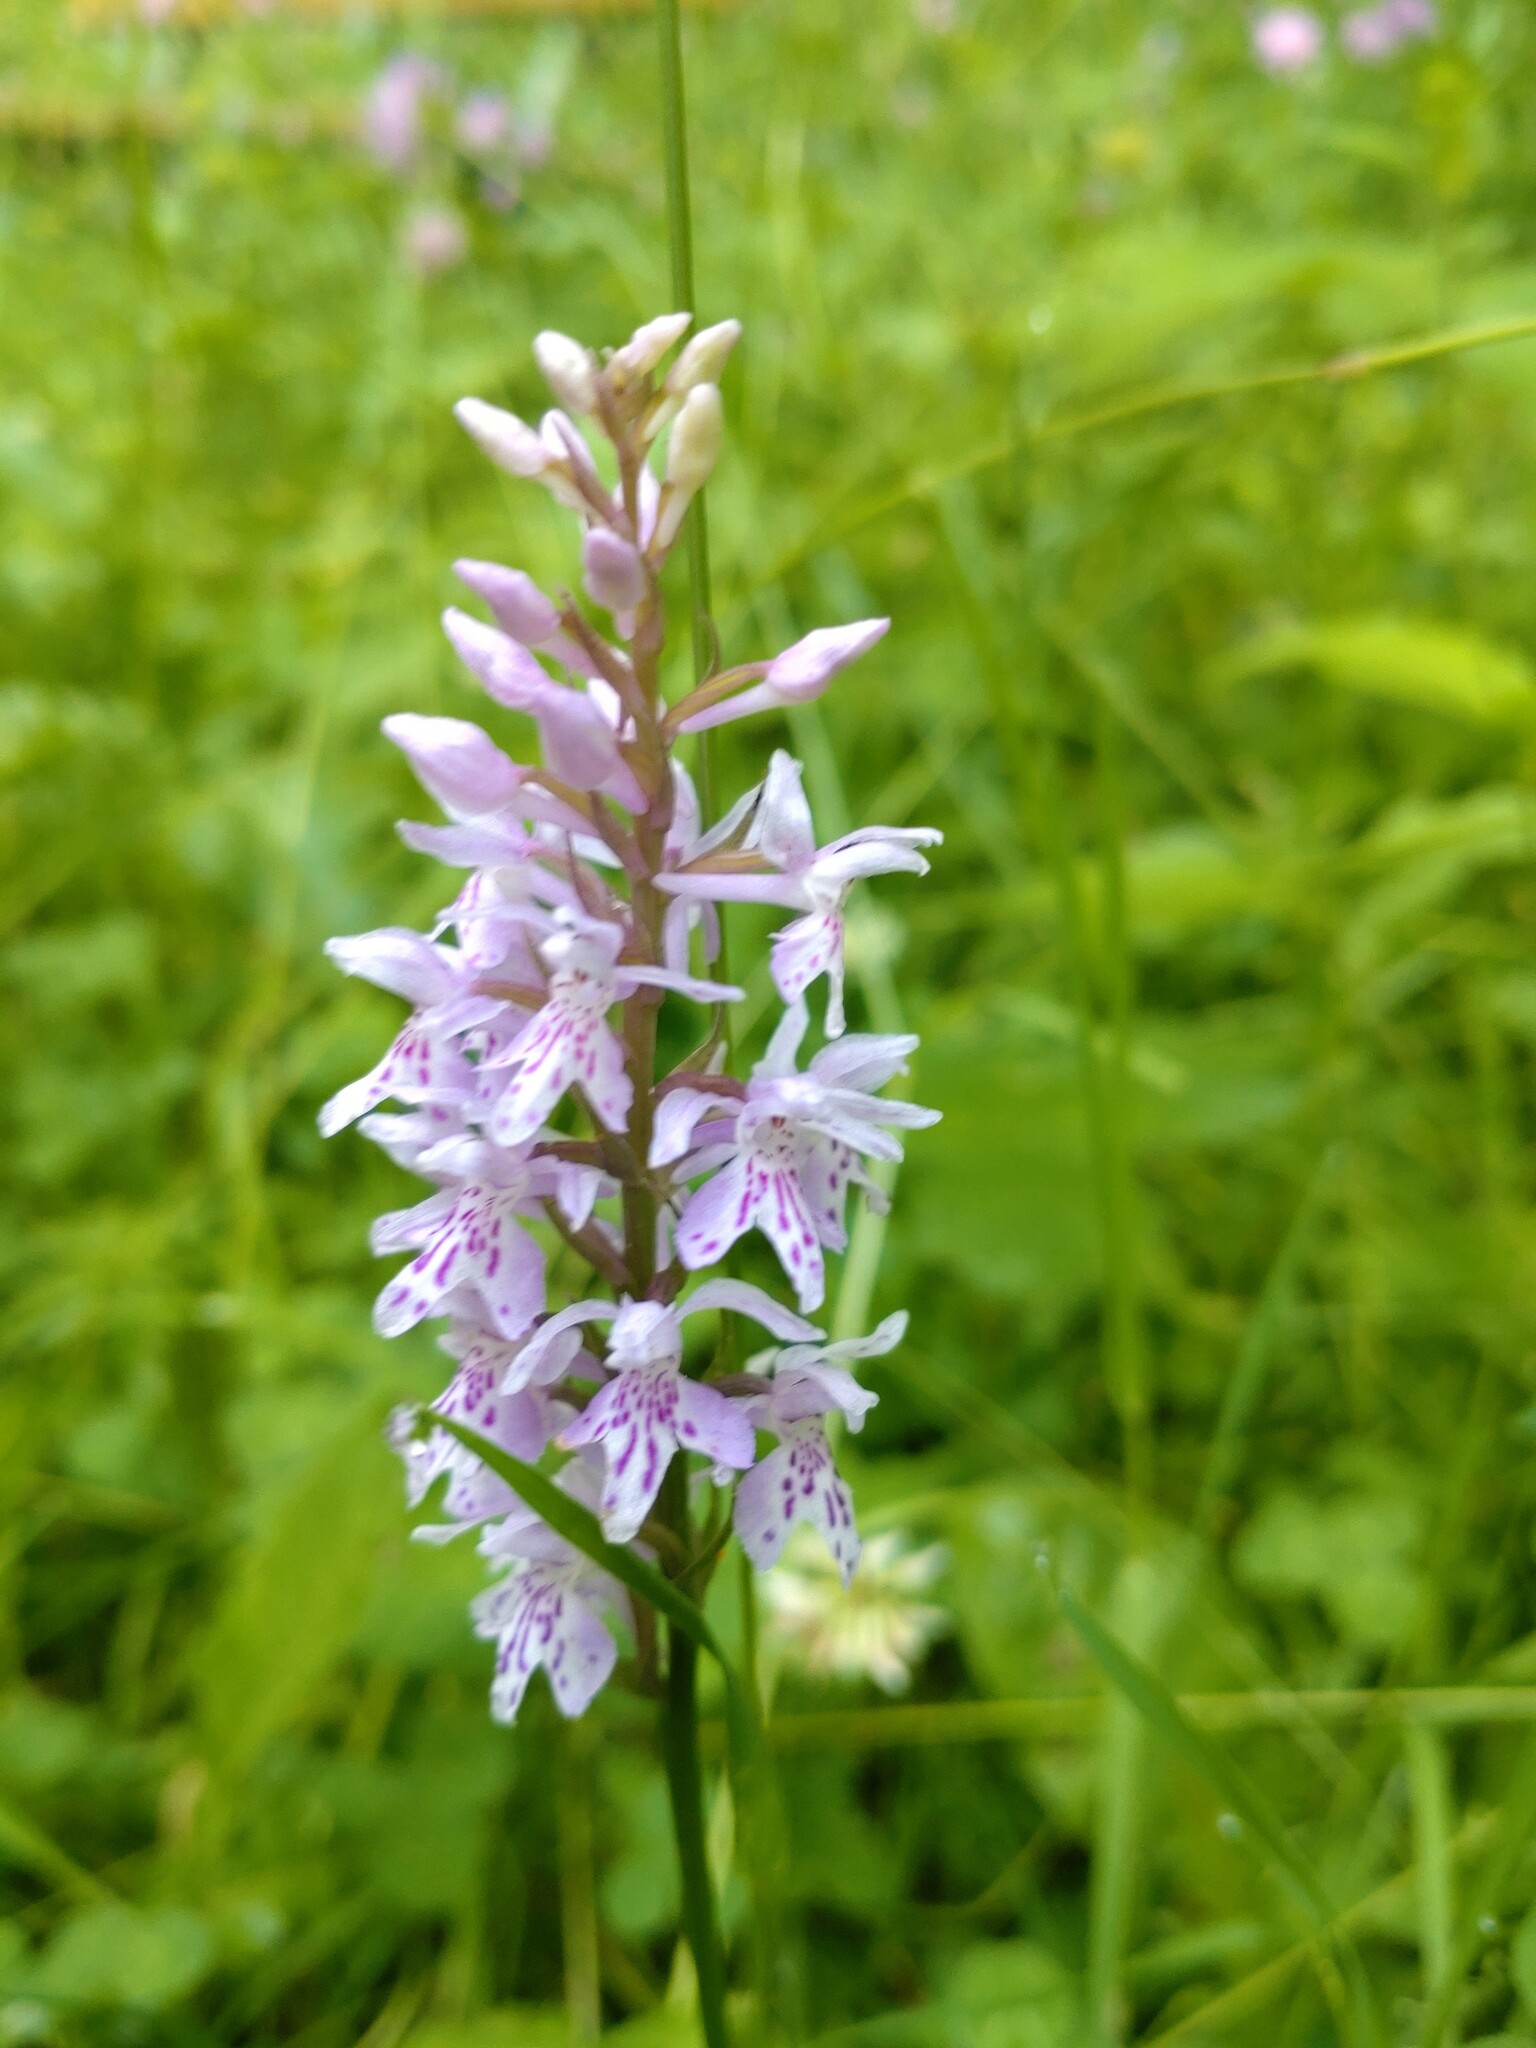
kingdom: Plantae
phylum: Tracheophyta
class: Liliopsida
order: Asparagales
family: Orchidaceae
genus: Dactylorhiza
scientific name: Dactylorhiza maculata
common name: Heath spotted-orchid
